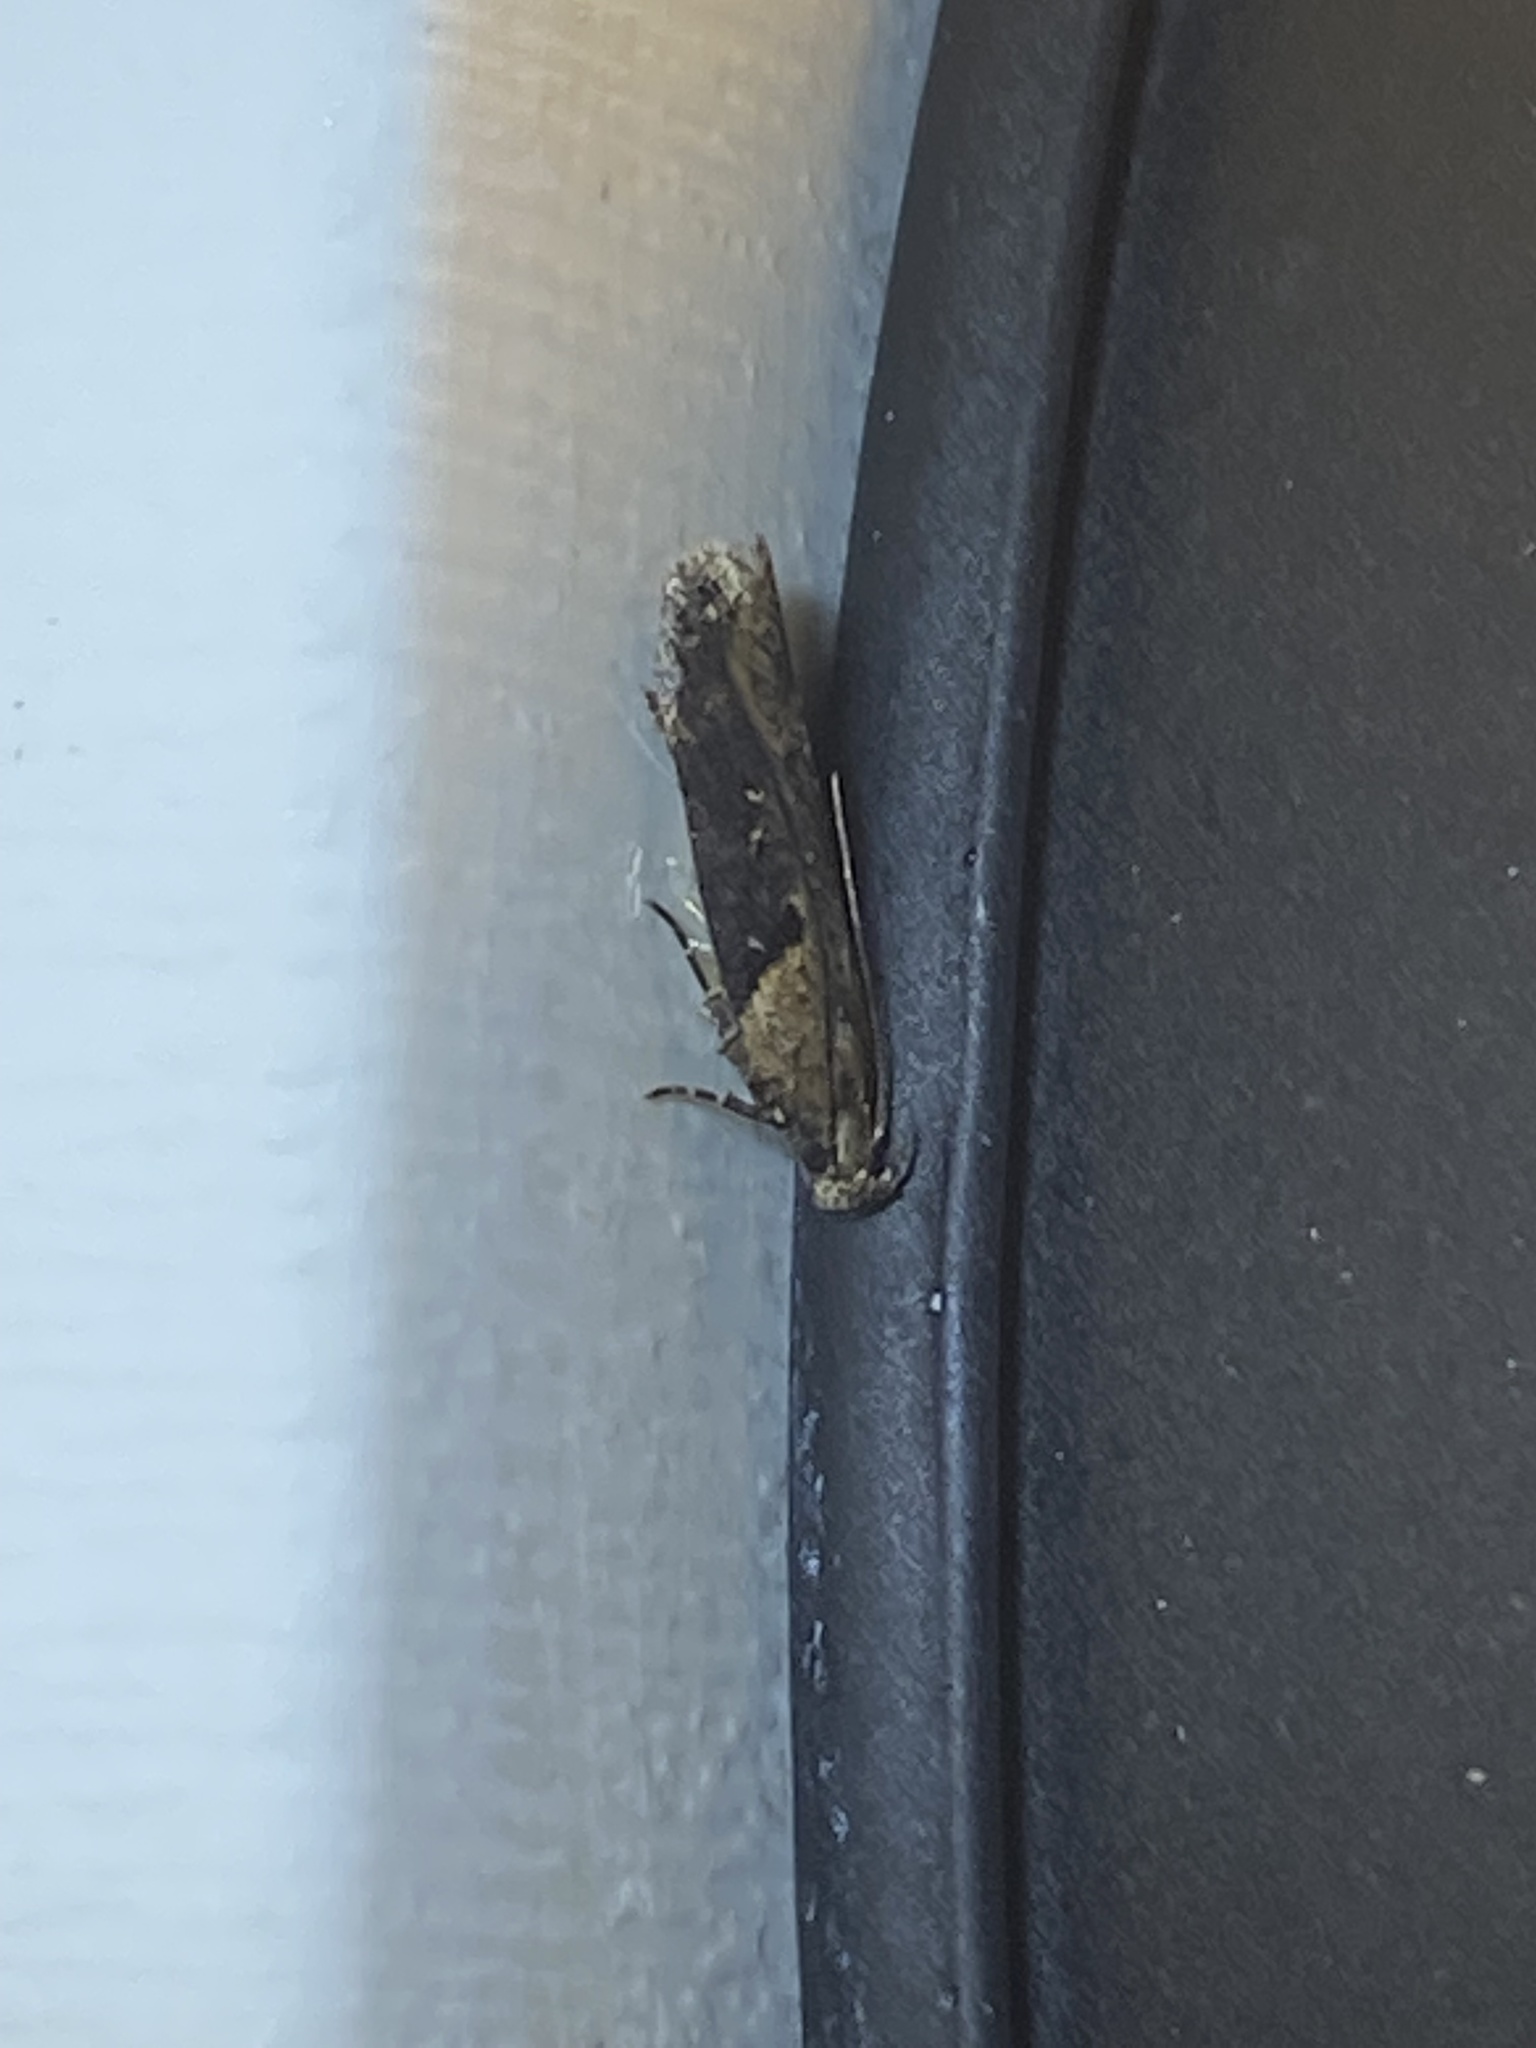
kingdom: Animalia
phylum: Arthropoda
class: Insecta
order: Lepidoptera
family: Gelechiidae
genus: Chionodes
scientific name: Chionodes mediofuscella
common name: Black-smudged chionodes moth
